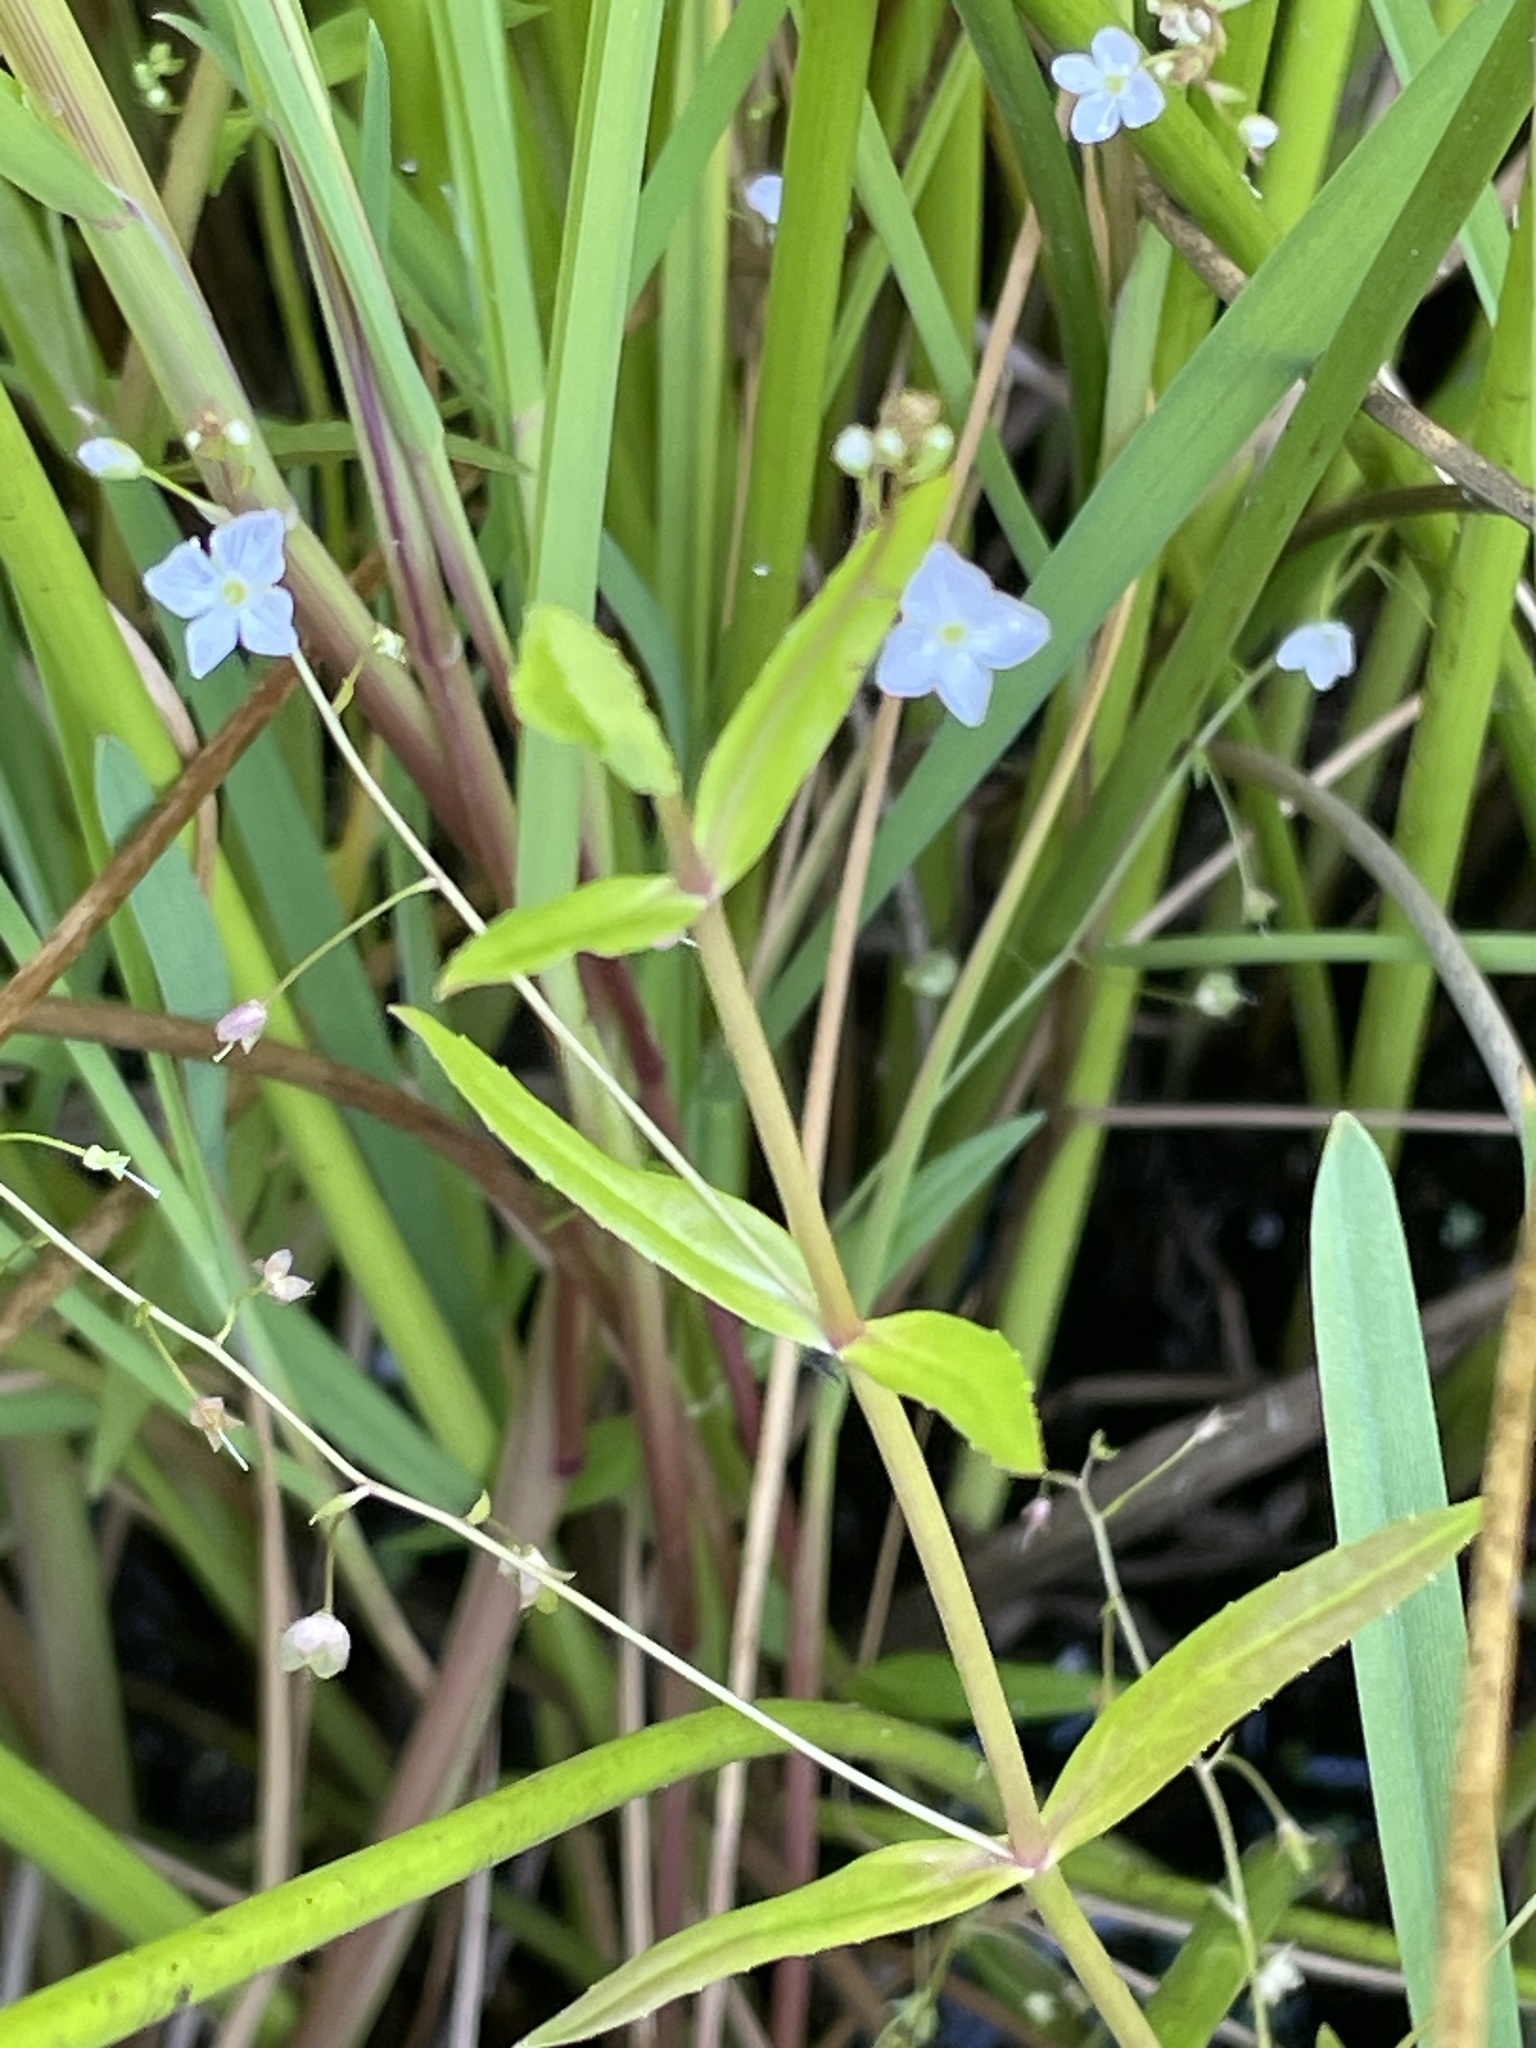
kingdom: Plantae
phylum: Tracheophyta
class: Magnoliopsida
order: Lamiales
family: Plantaginaceae
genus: Veronica
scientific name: Veronica scutellata
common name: Marsh speedwell
